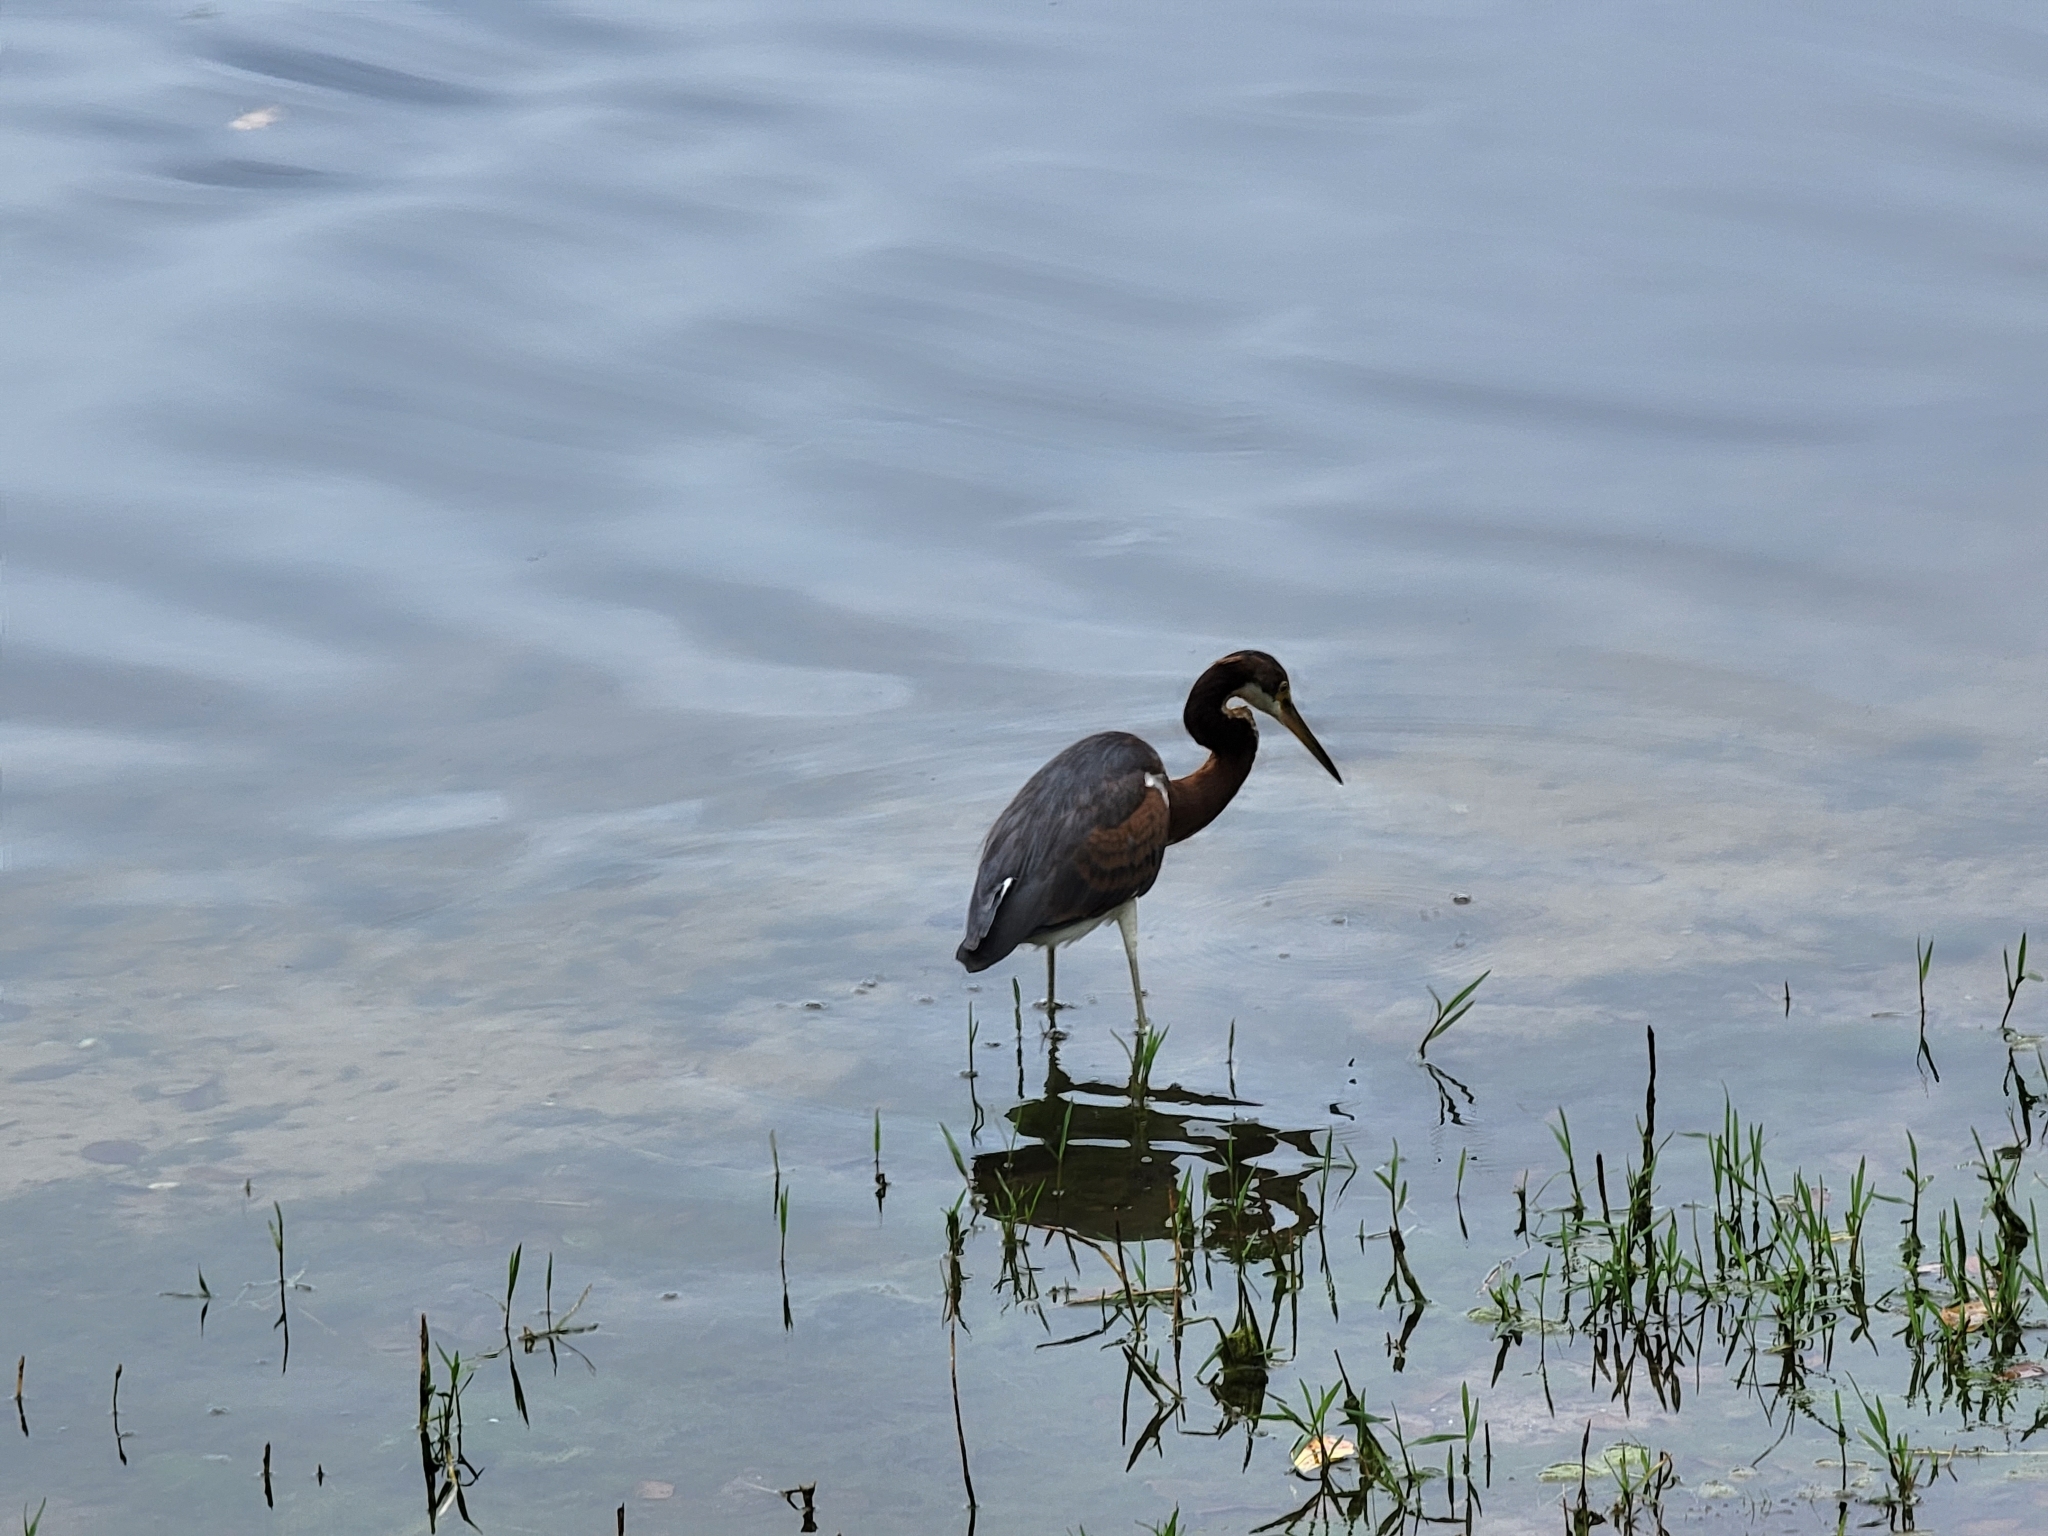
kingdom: Animalia
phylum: Chordata
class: Aves
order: Pelecaniformes
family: Ardeidae
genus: Egretta
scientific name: Egretta tricolor
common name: Tricolored heron
